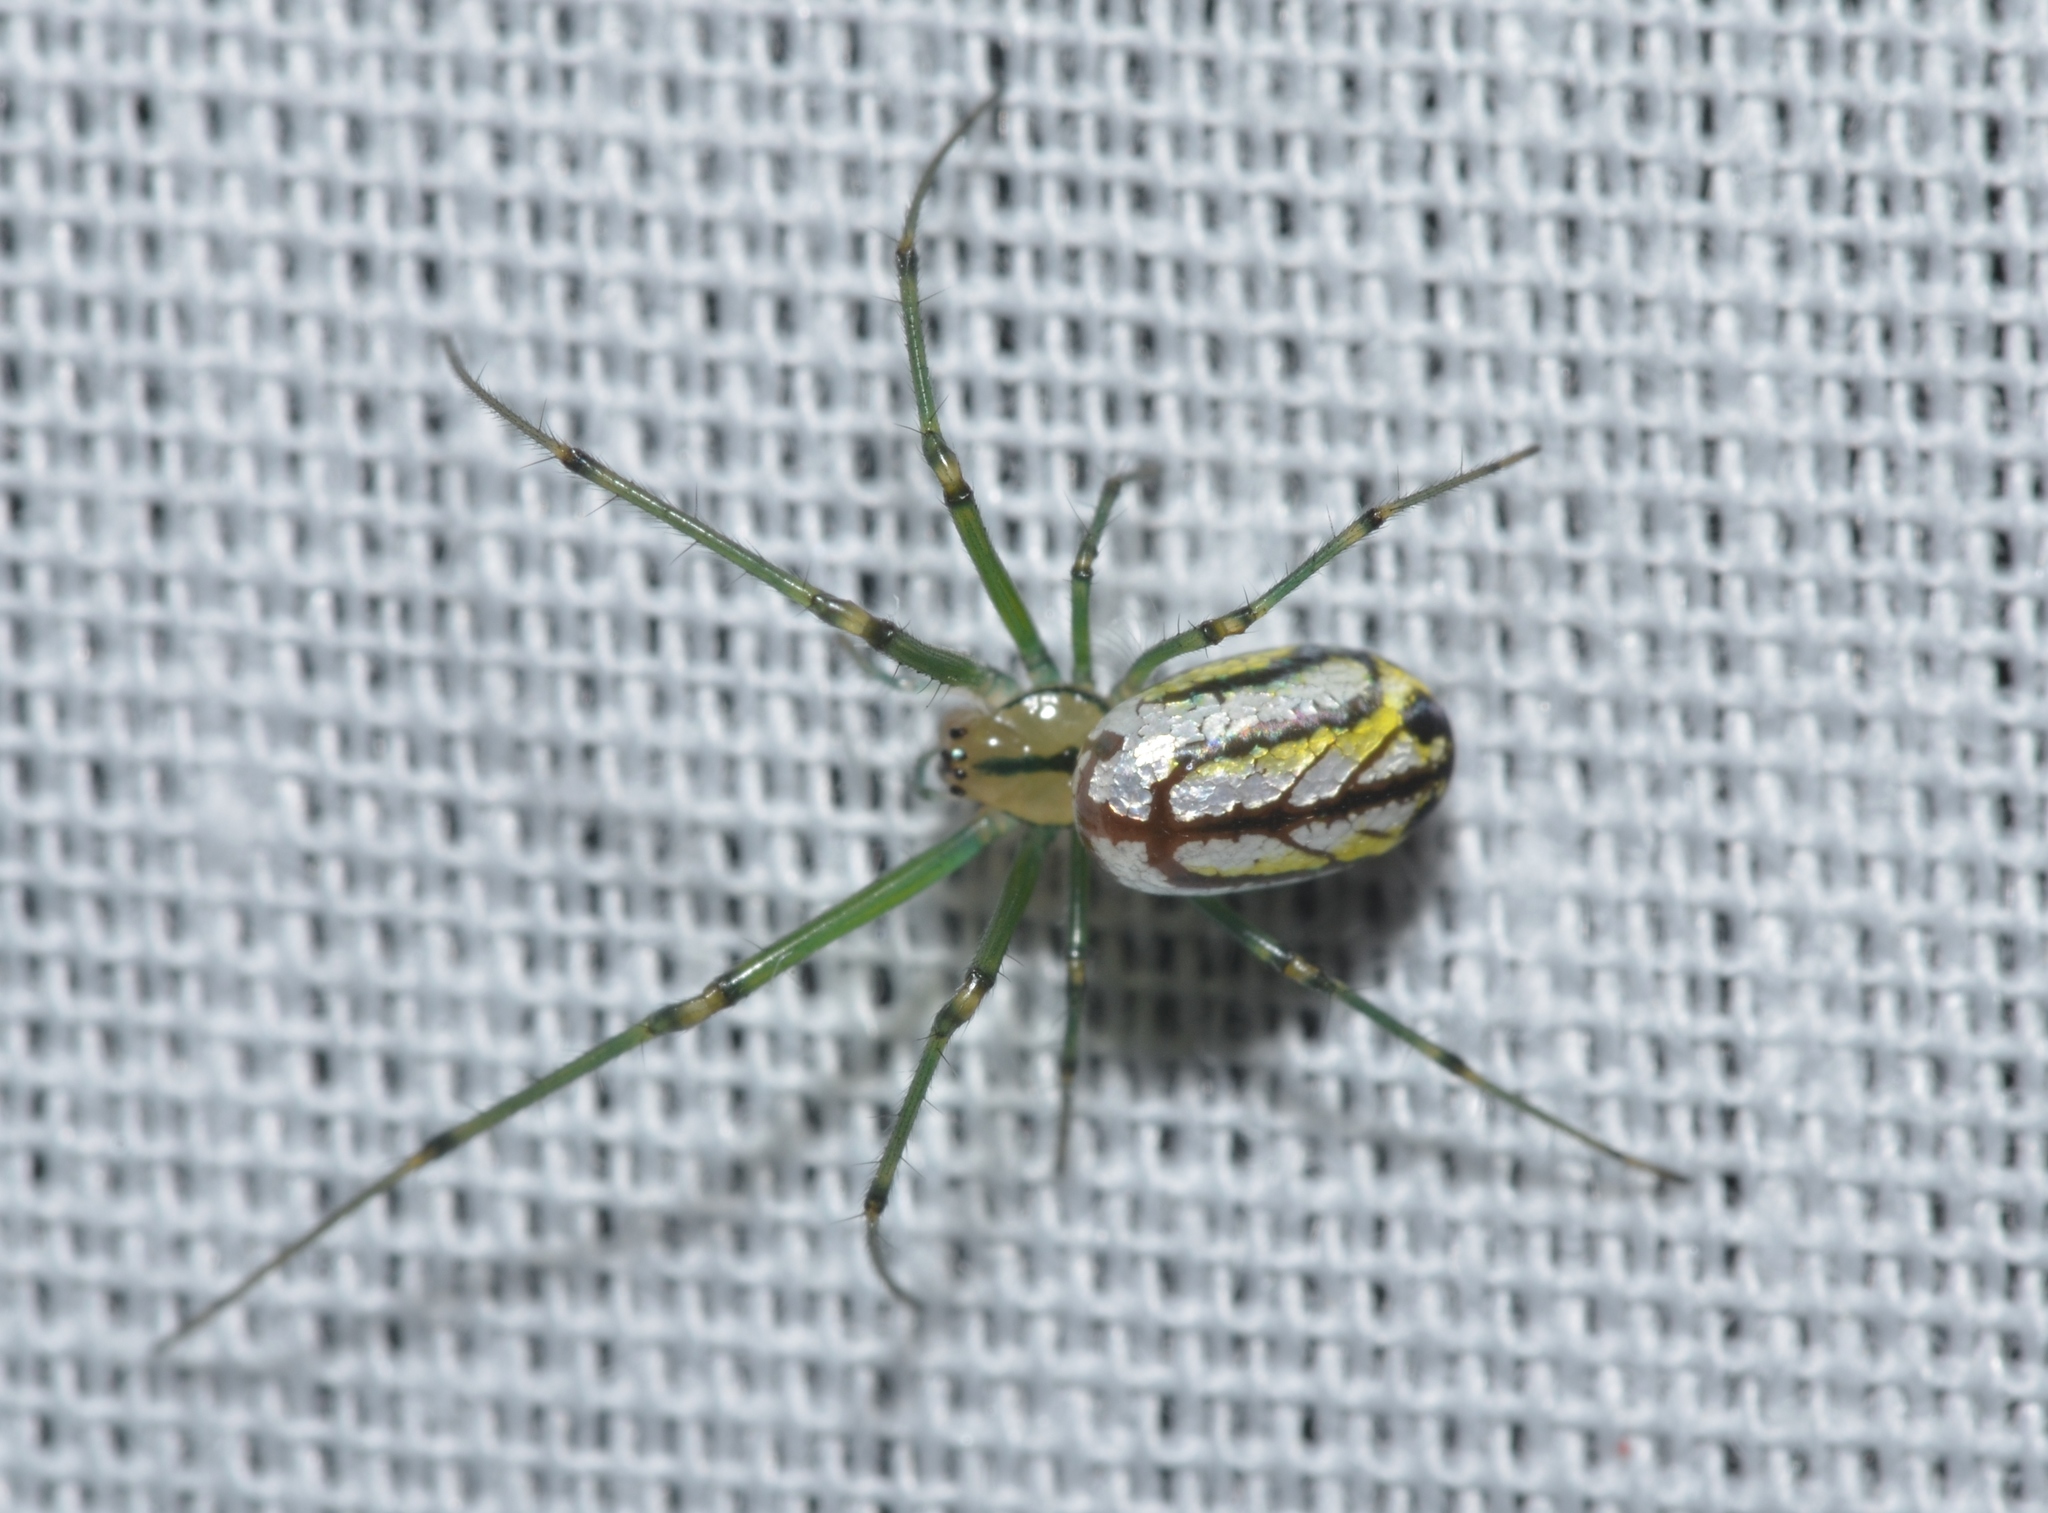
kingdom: Animalia
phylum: Arthropoda
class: Arachnida
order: Araneae
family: Tetragnathidae
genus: Leucauge
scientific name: Leucauge venusta
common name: Longjawed orb weavers
